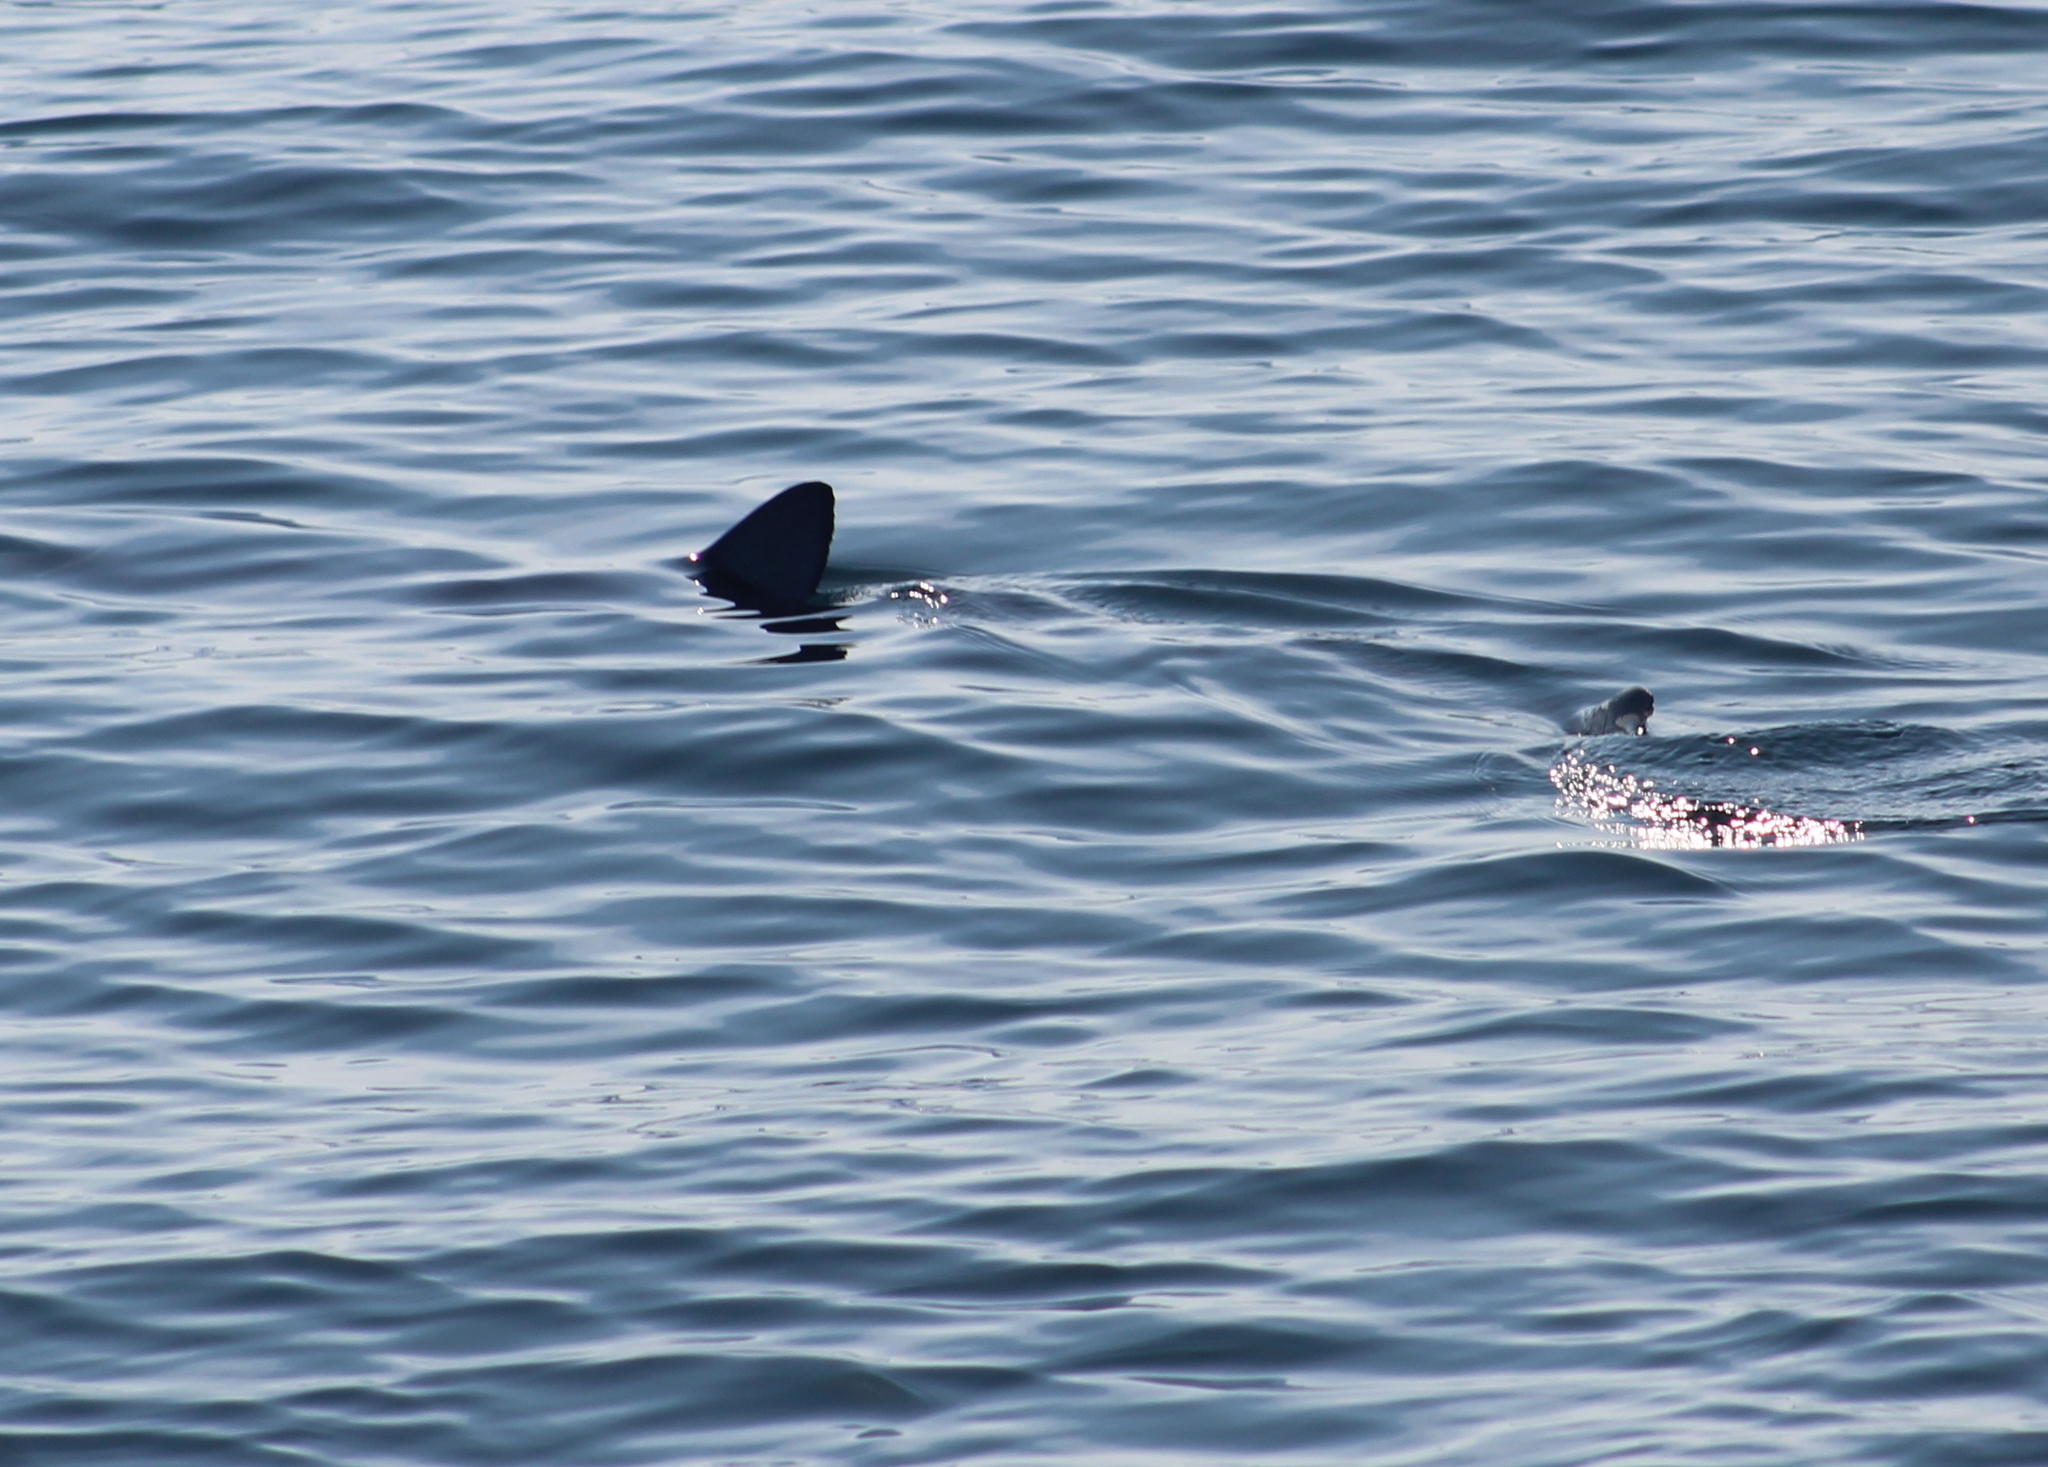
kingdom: Animalia
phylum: Chordata
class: Elasmobranchii
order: Carcharhiniformes
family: Carcharhinidae
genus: Prionace
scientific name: Prionace glauca
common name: Blue shark
